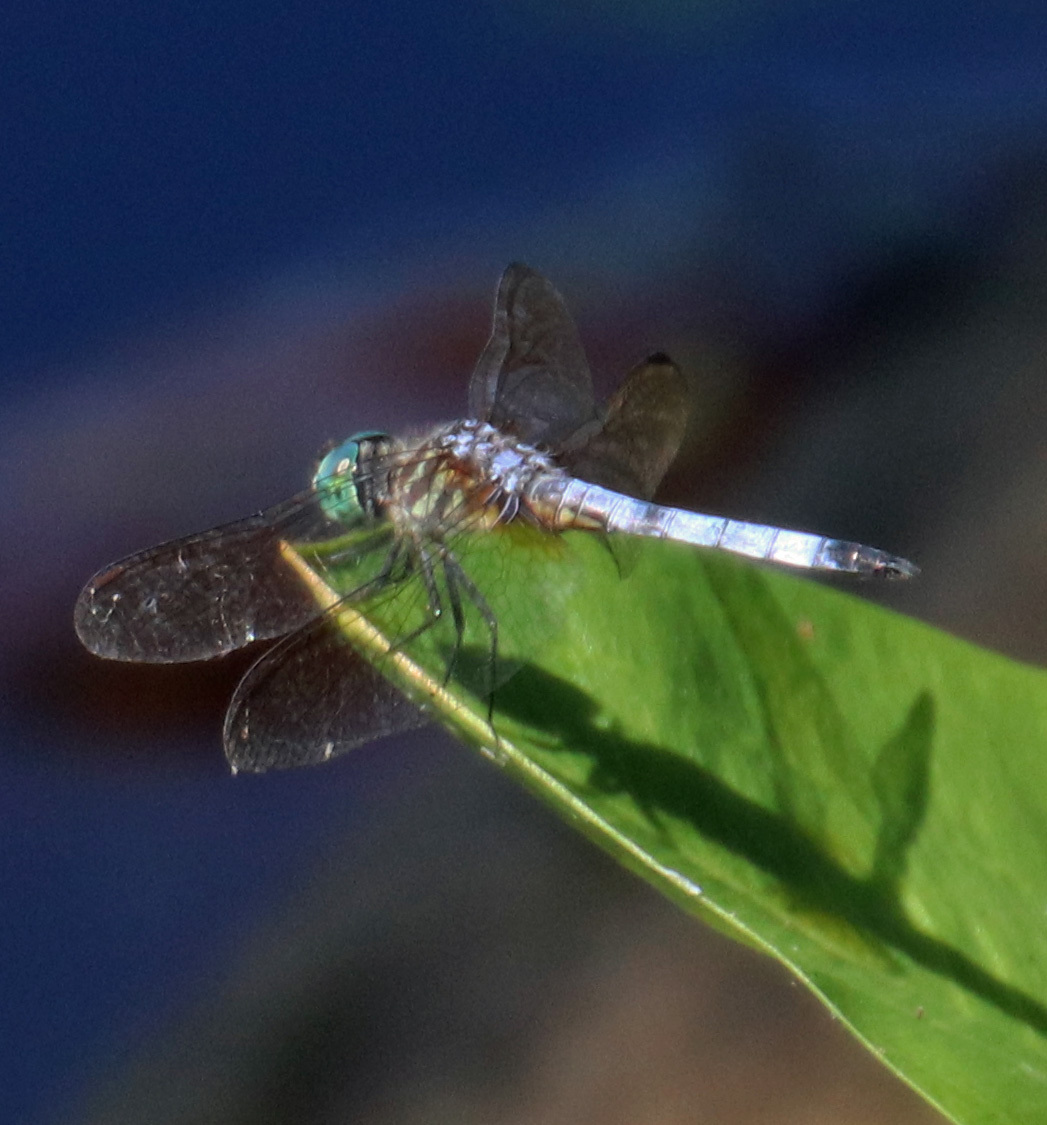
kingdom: Animalia
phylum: Arthropoda
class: Insecta
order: Odonata
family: Libellulidae
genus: Pachydiplax
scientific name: Pachydiplax longipennis
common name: Blue dasher
